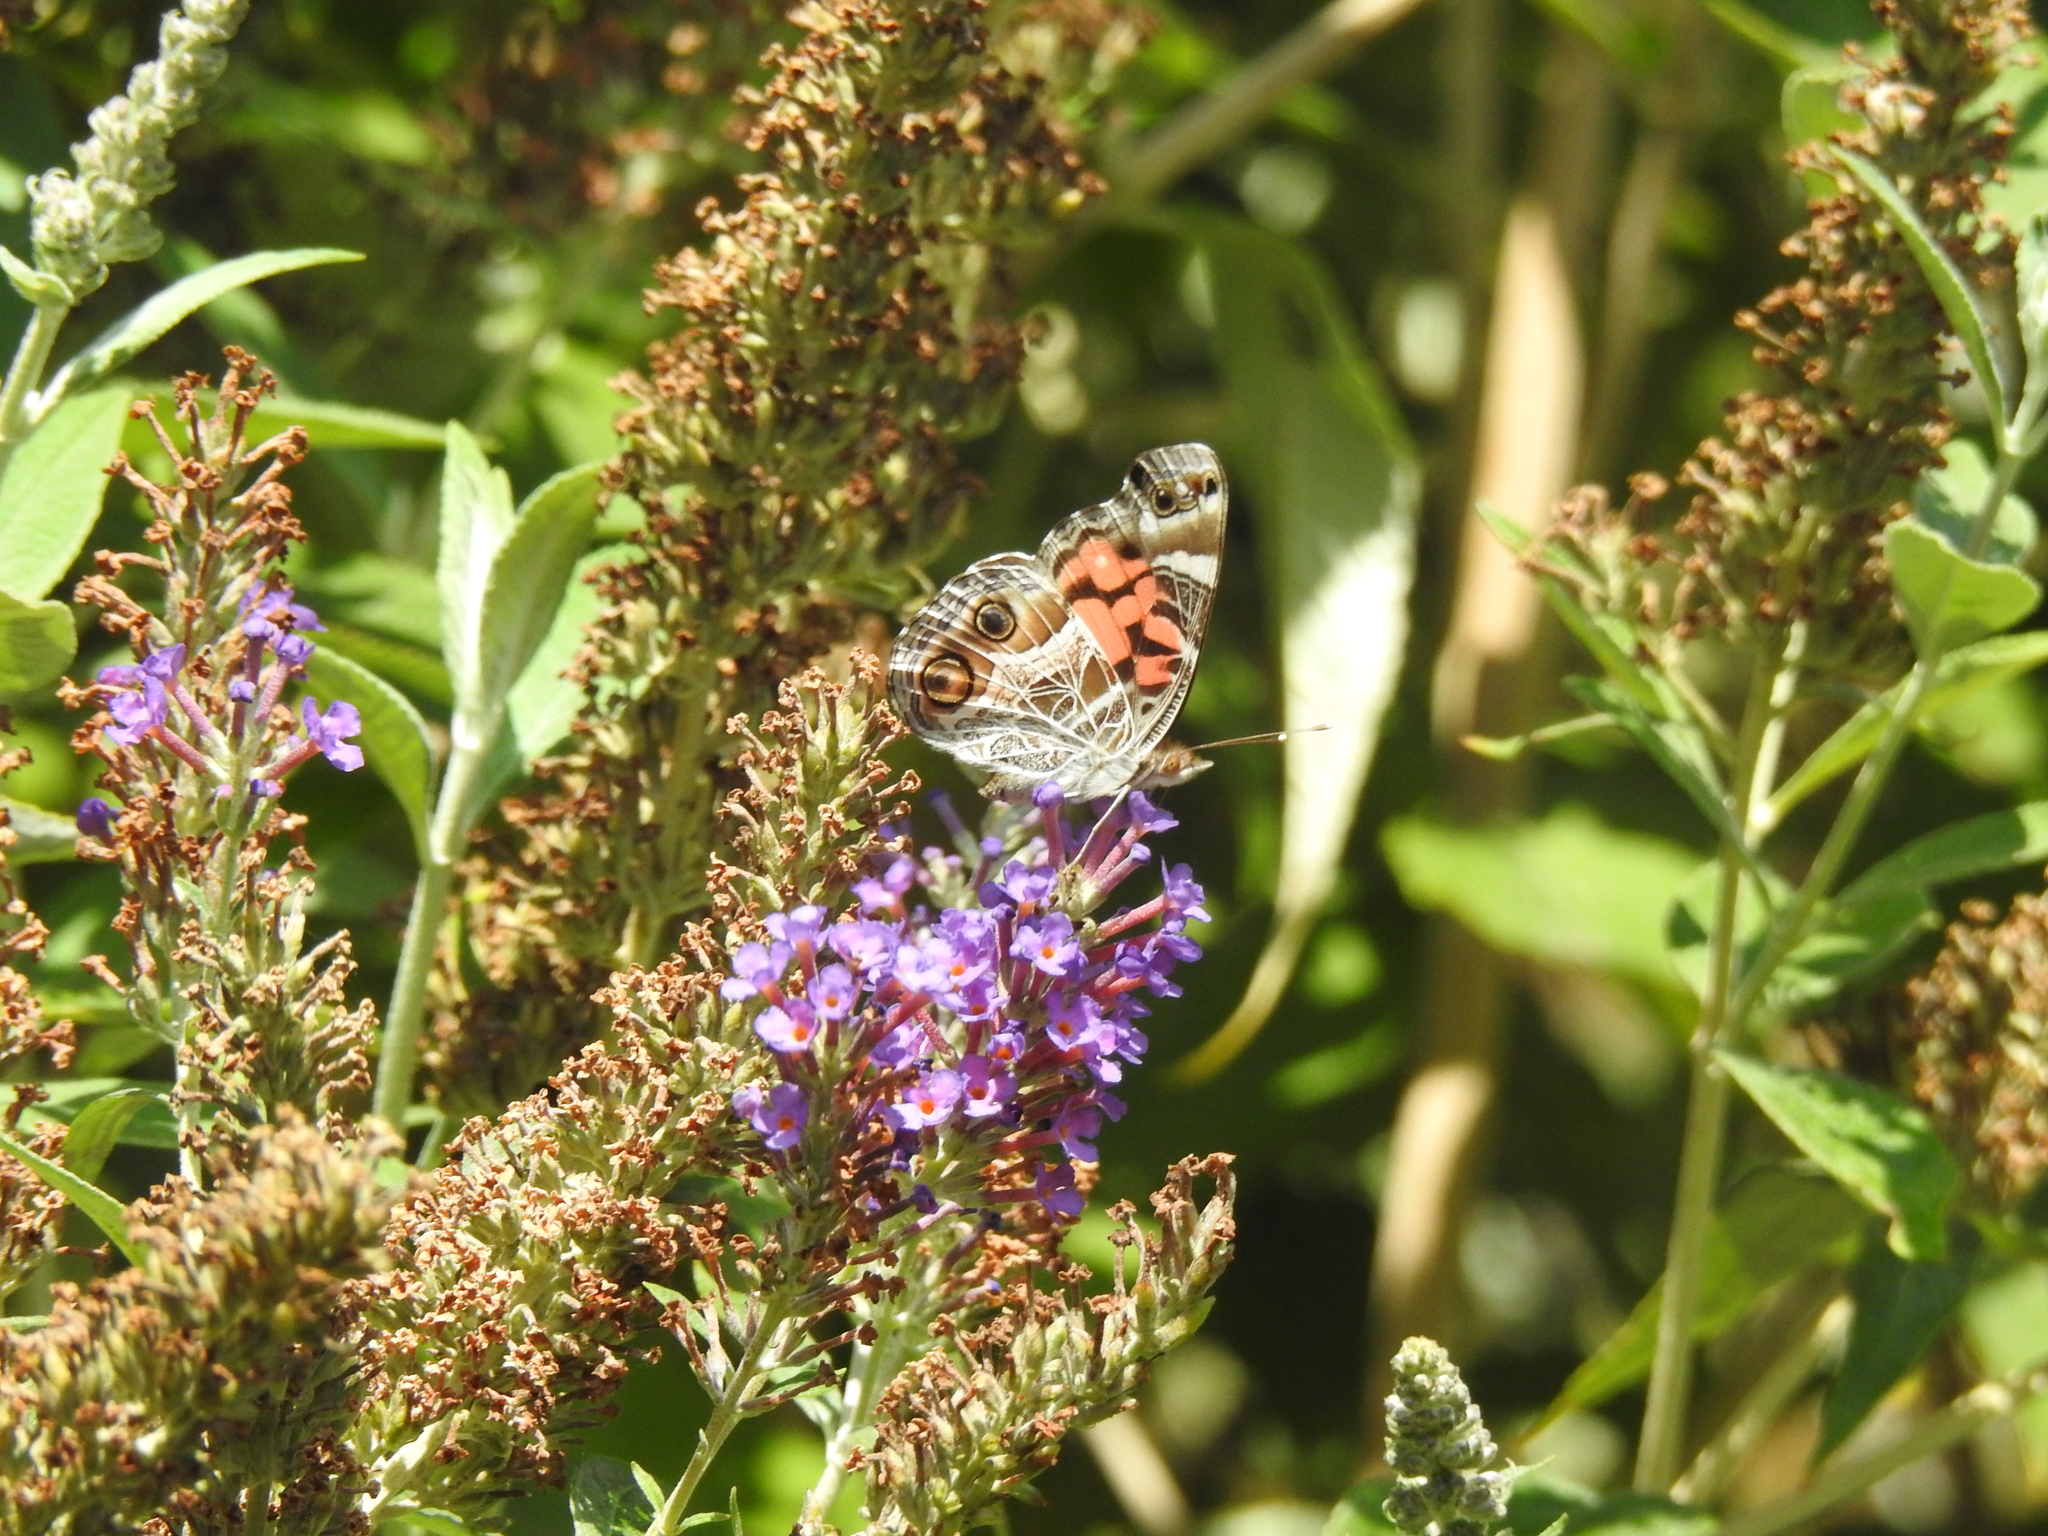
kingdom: Animalia
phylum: Arthropoda
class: Insecta
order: Lepidoptera
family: Nymphalidae
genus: Vanessa
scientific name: Vanessa virginiensis
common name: American lady
